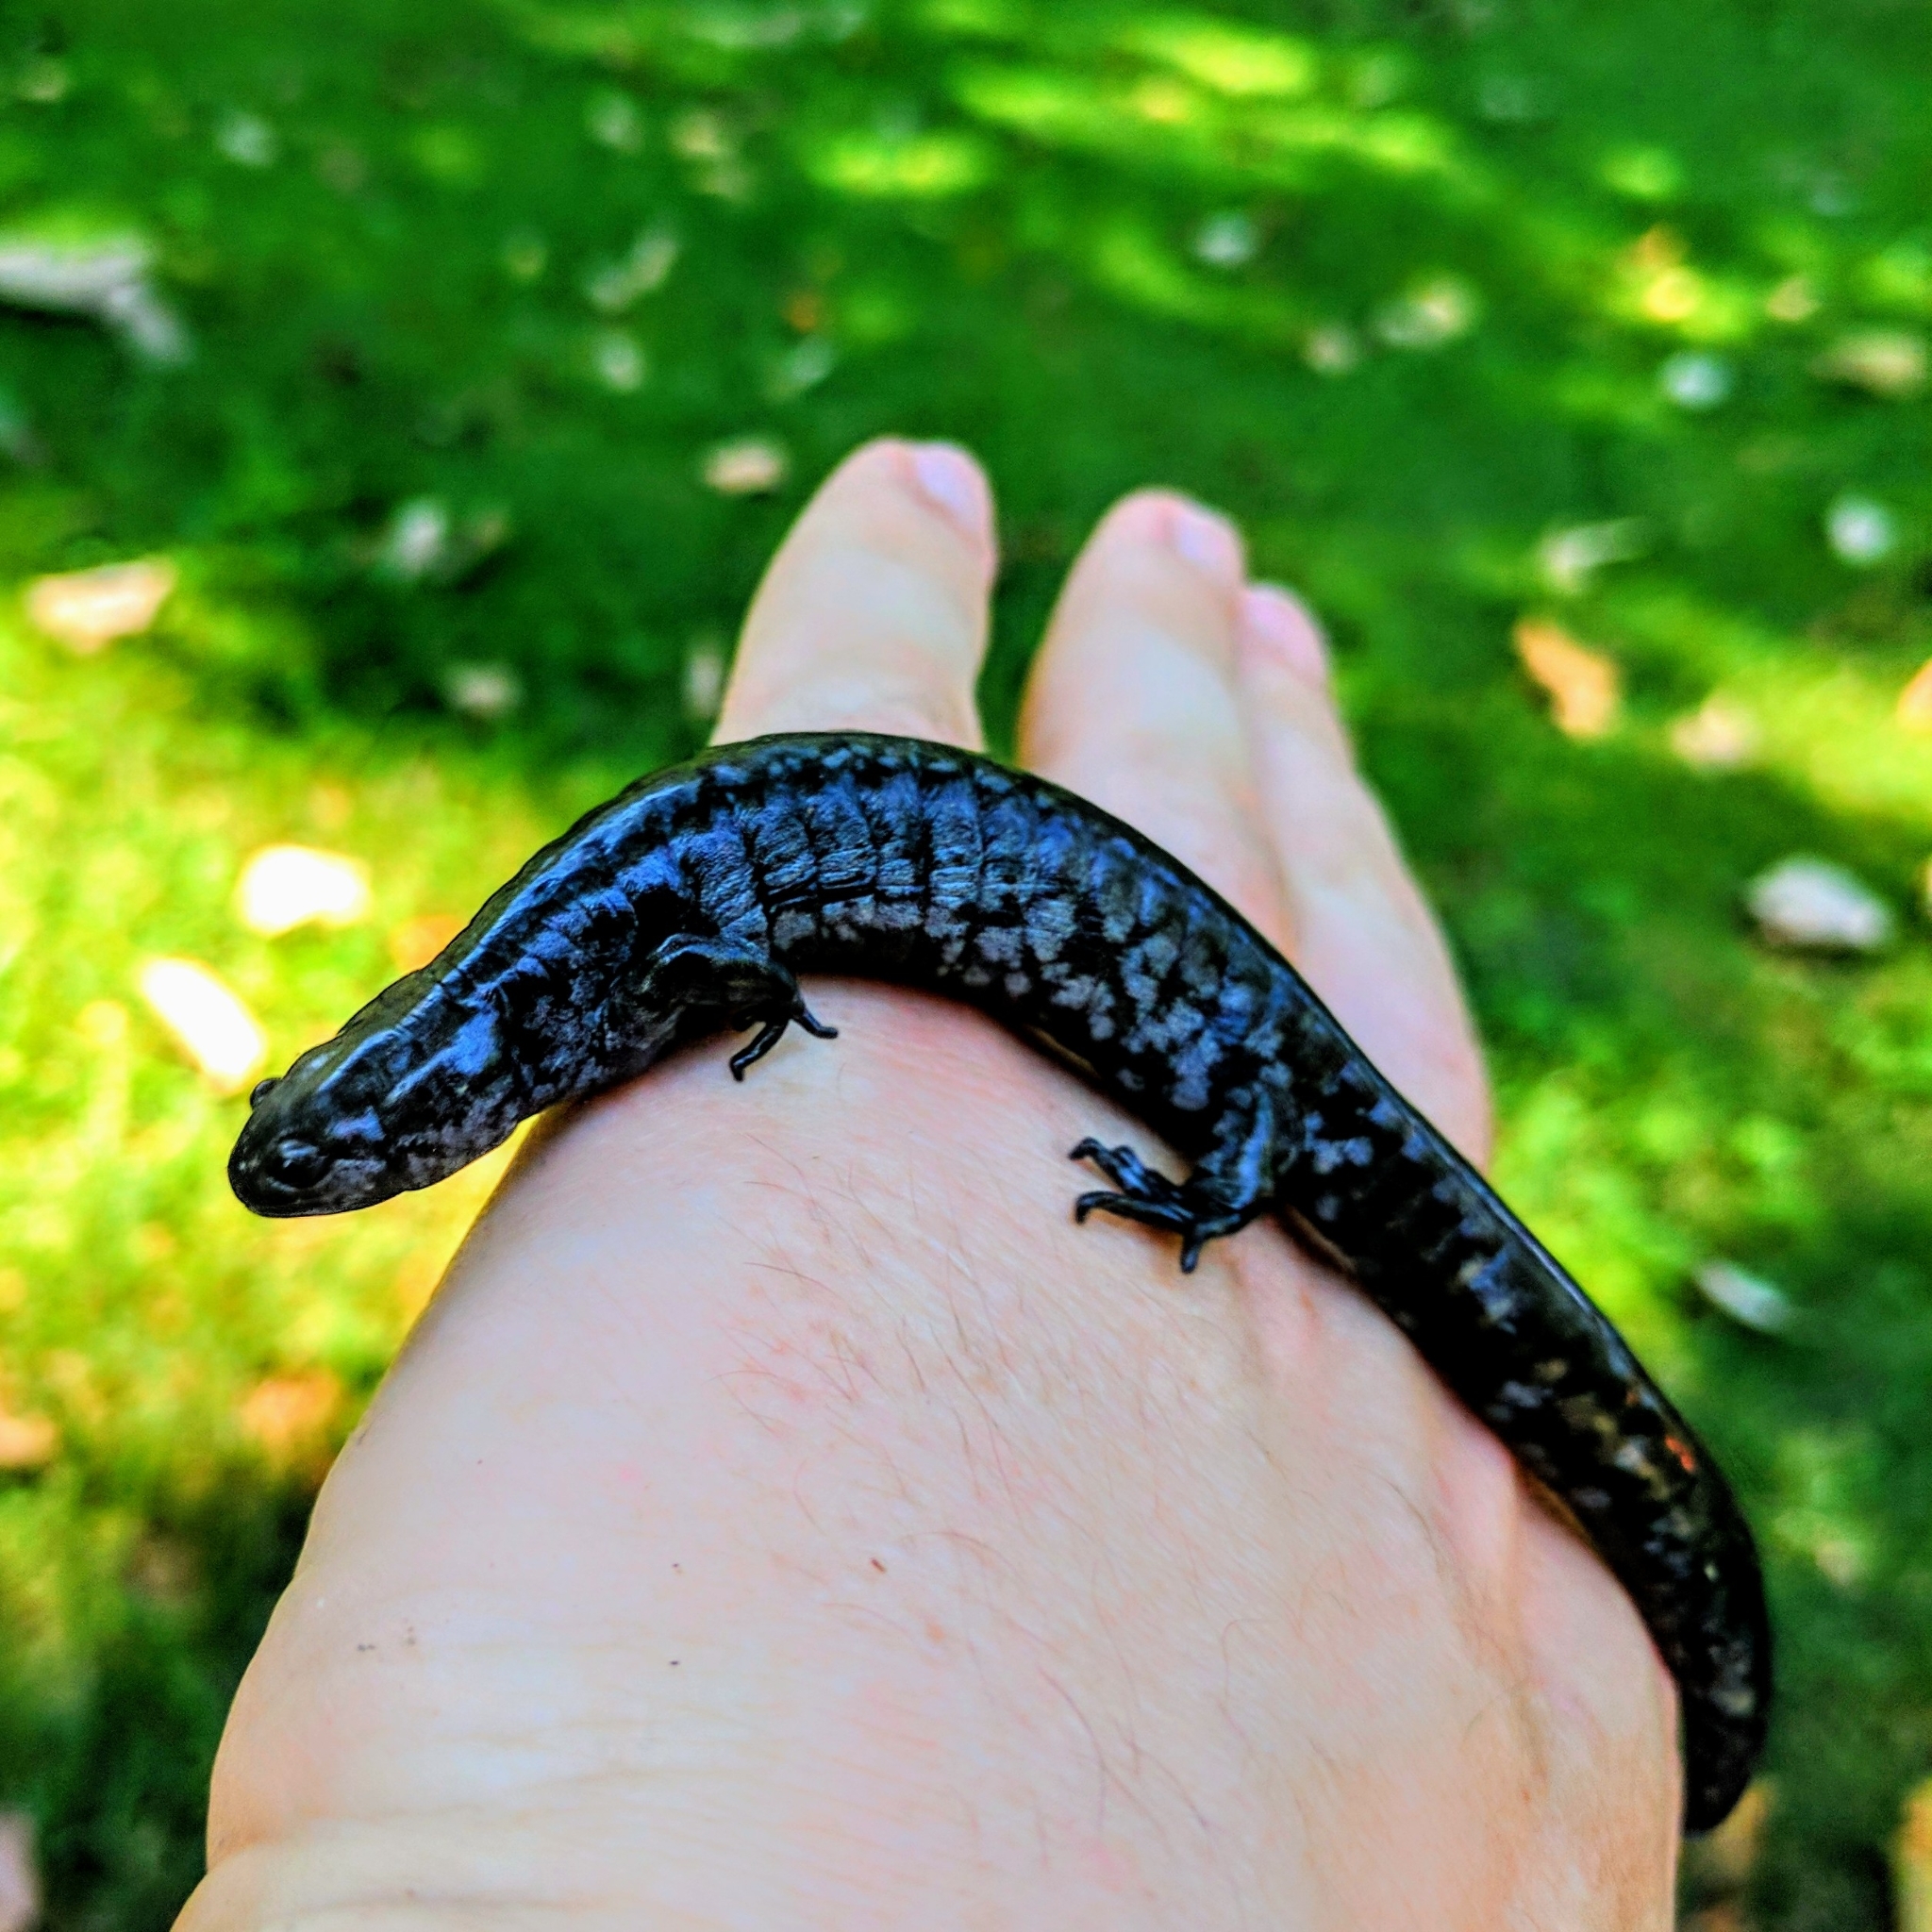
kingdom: Animalia
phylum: Chordata
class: Amphibia
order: Caudata
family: Ambystomatidae
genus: Ambystoma
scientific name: Ambystoma texanum
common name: Small-mouth salamander
